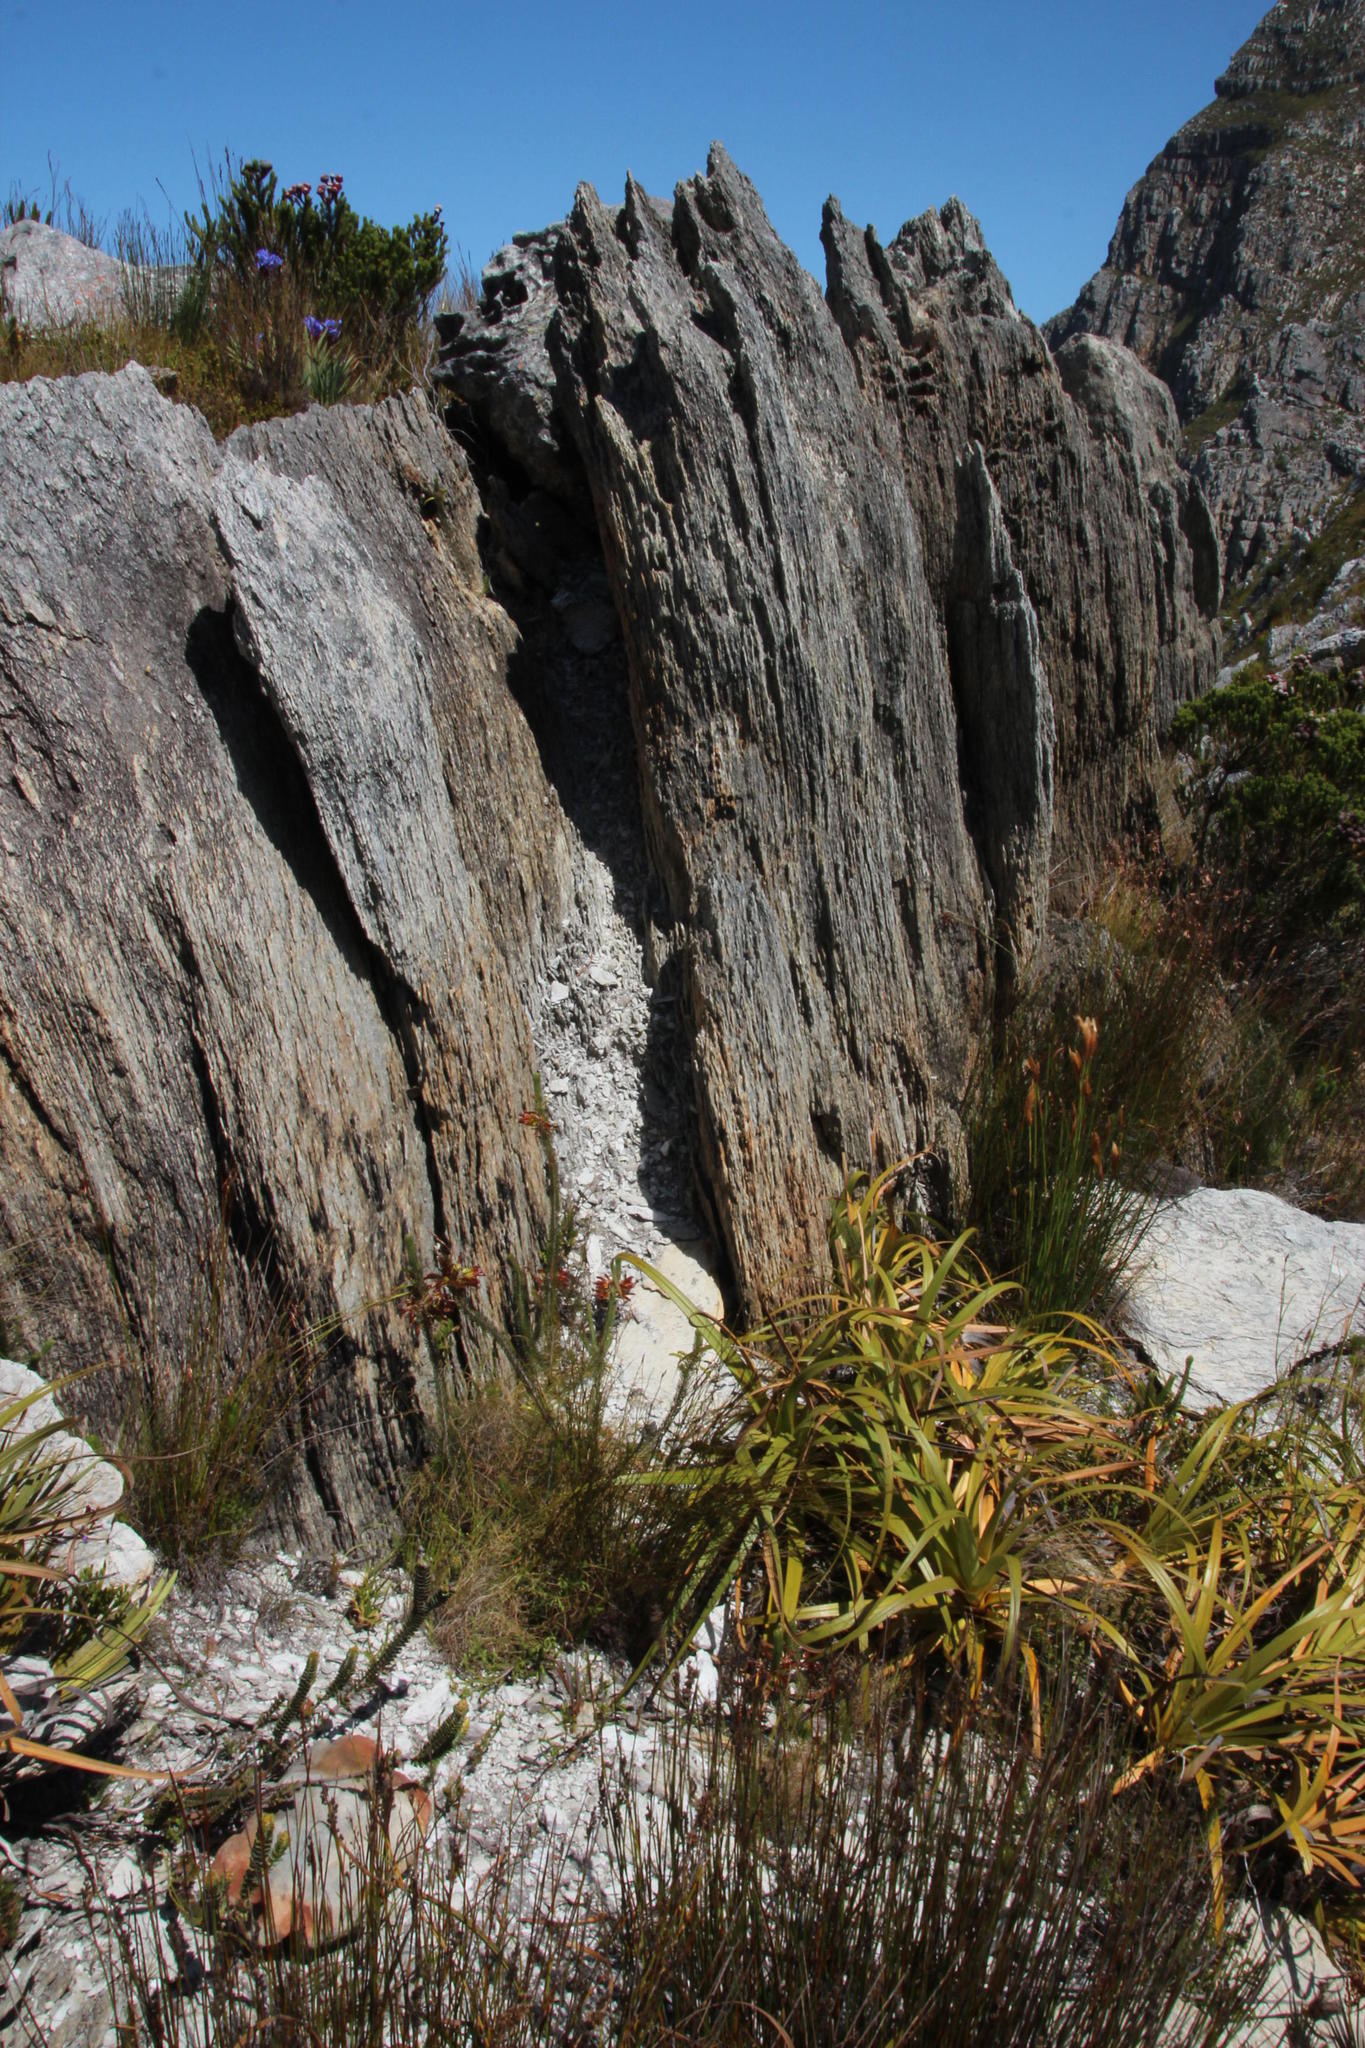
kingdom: Plantae
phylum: Tracheophyta
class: Liliopsida
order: Poales
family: Cyperaceae
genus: Tetraria
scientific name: Tetraria thermalis
